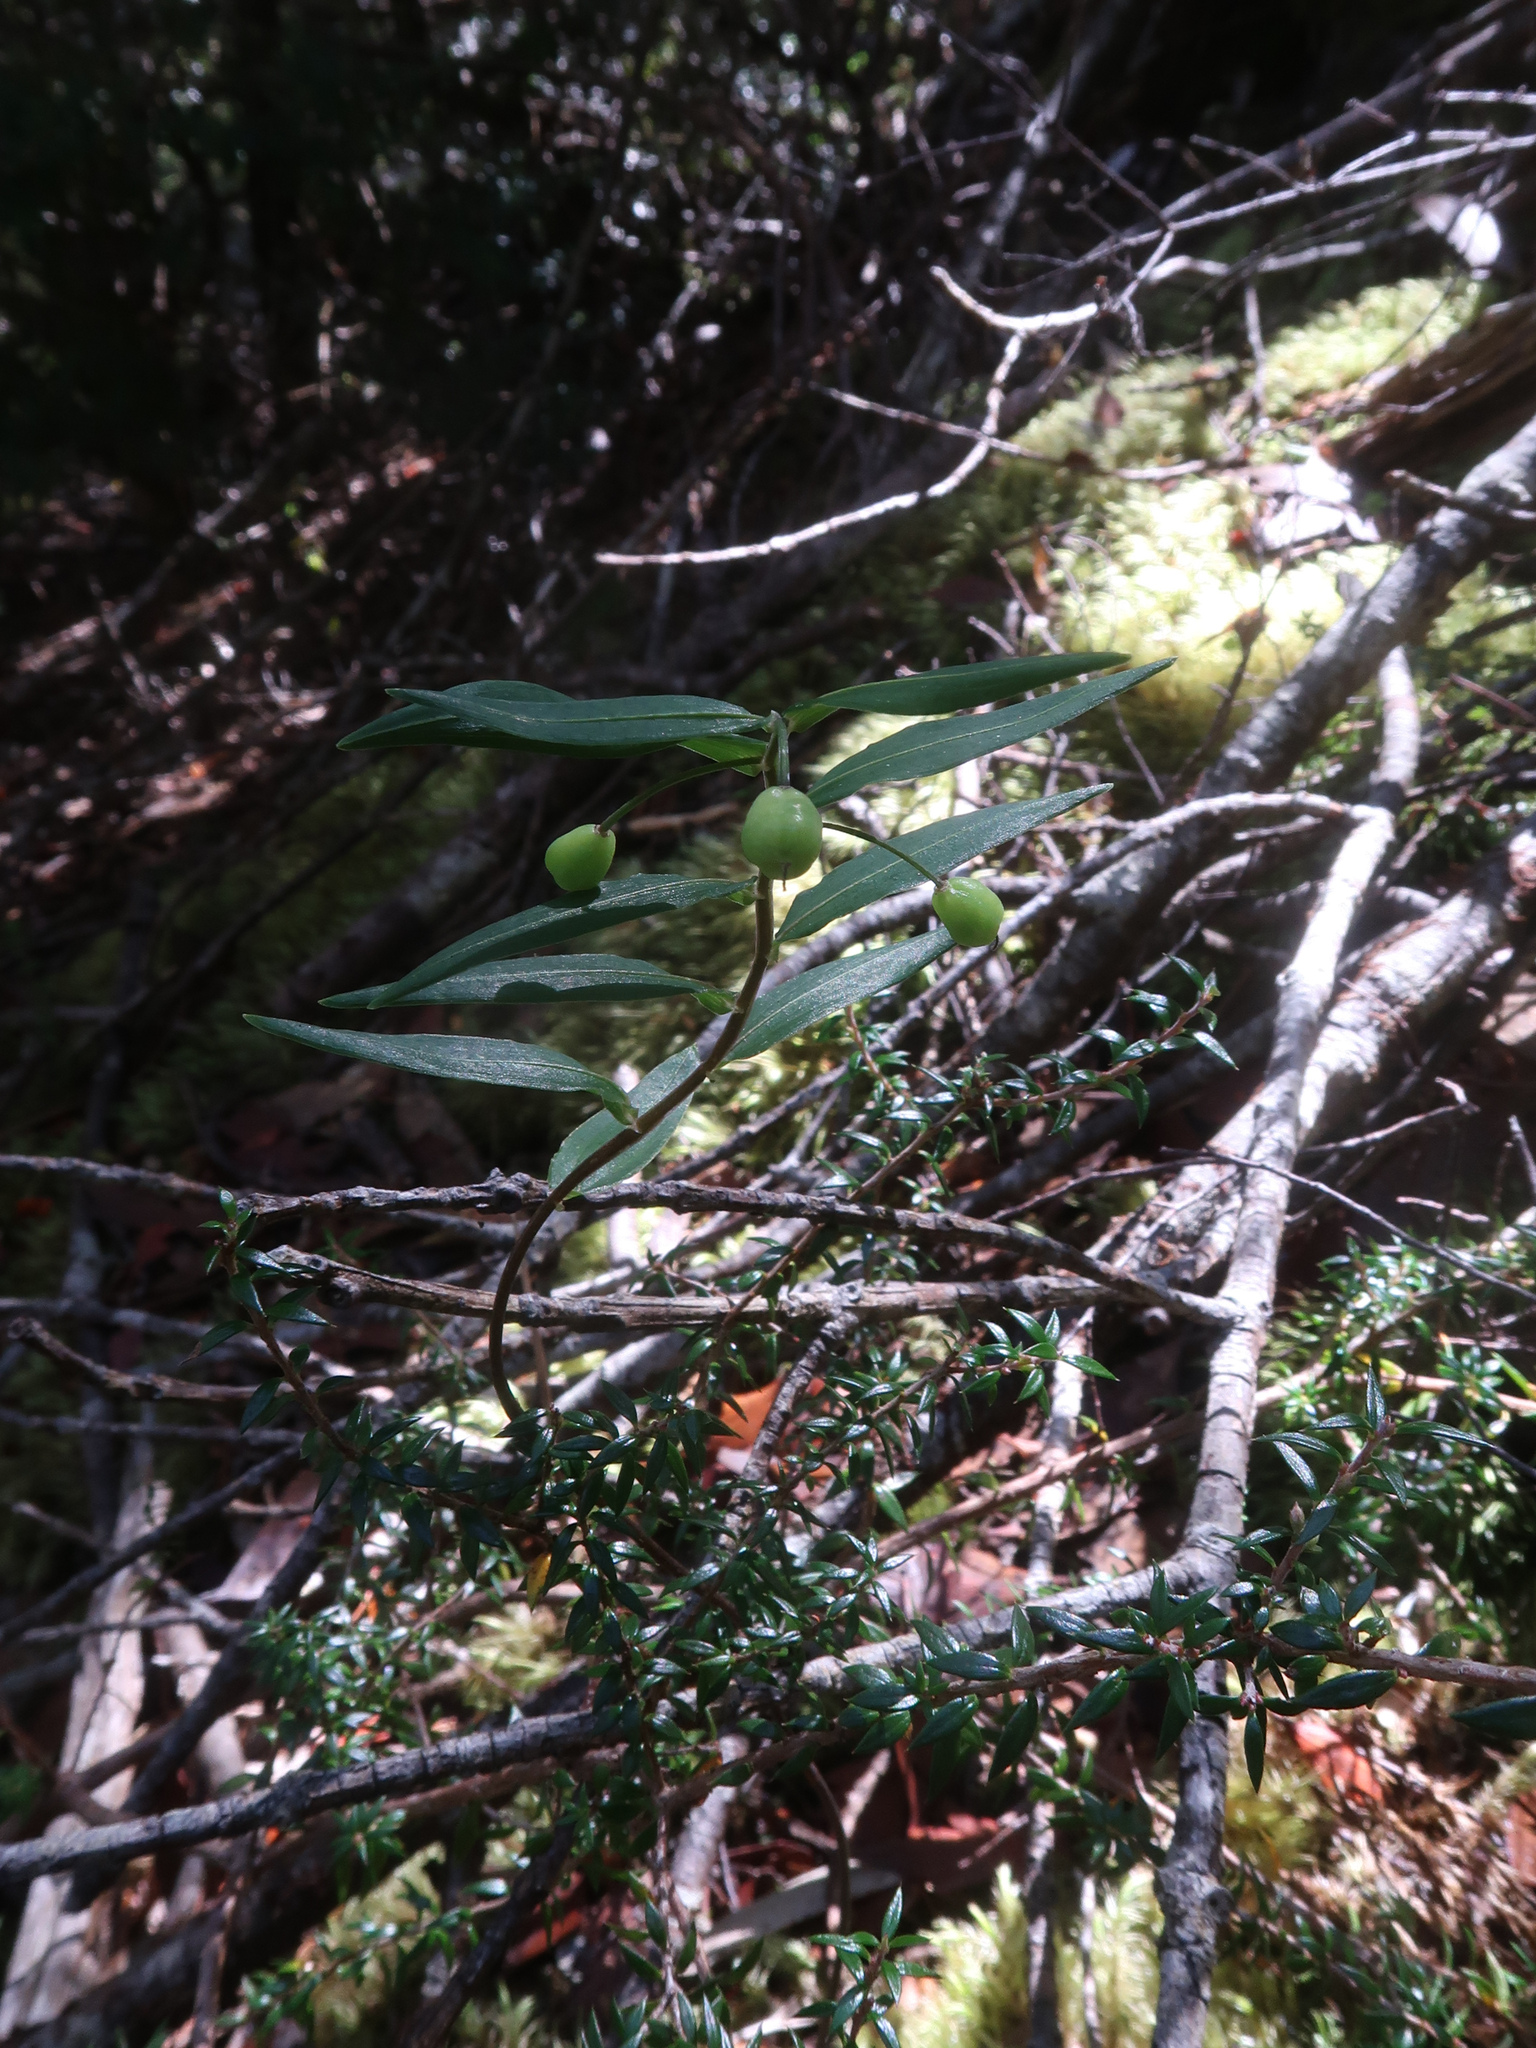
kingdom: Plantae
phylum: Tracheophyta
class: Liliopsida
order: Liliales
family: Alstroemeriaceae
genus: Drymophila
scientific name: Drymophila cyanocarpa
